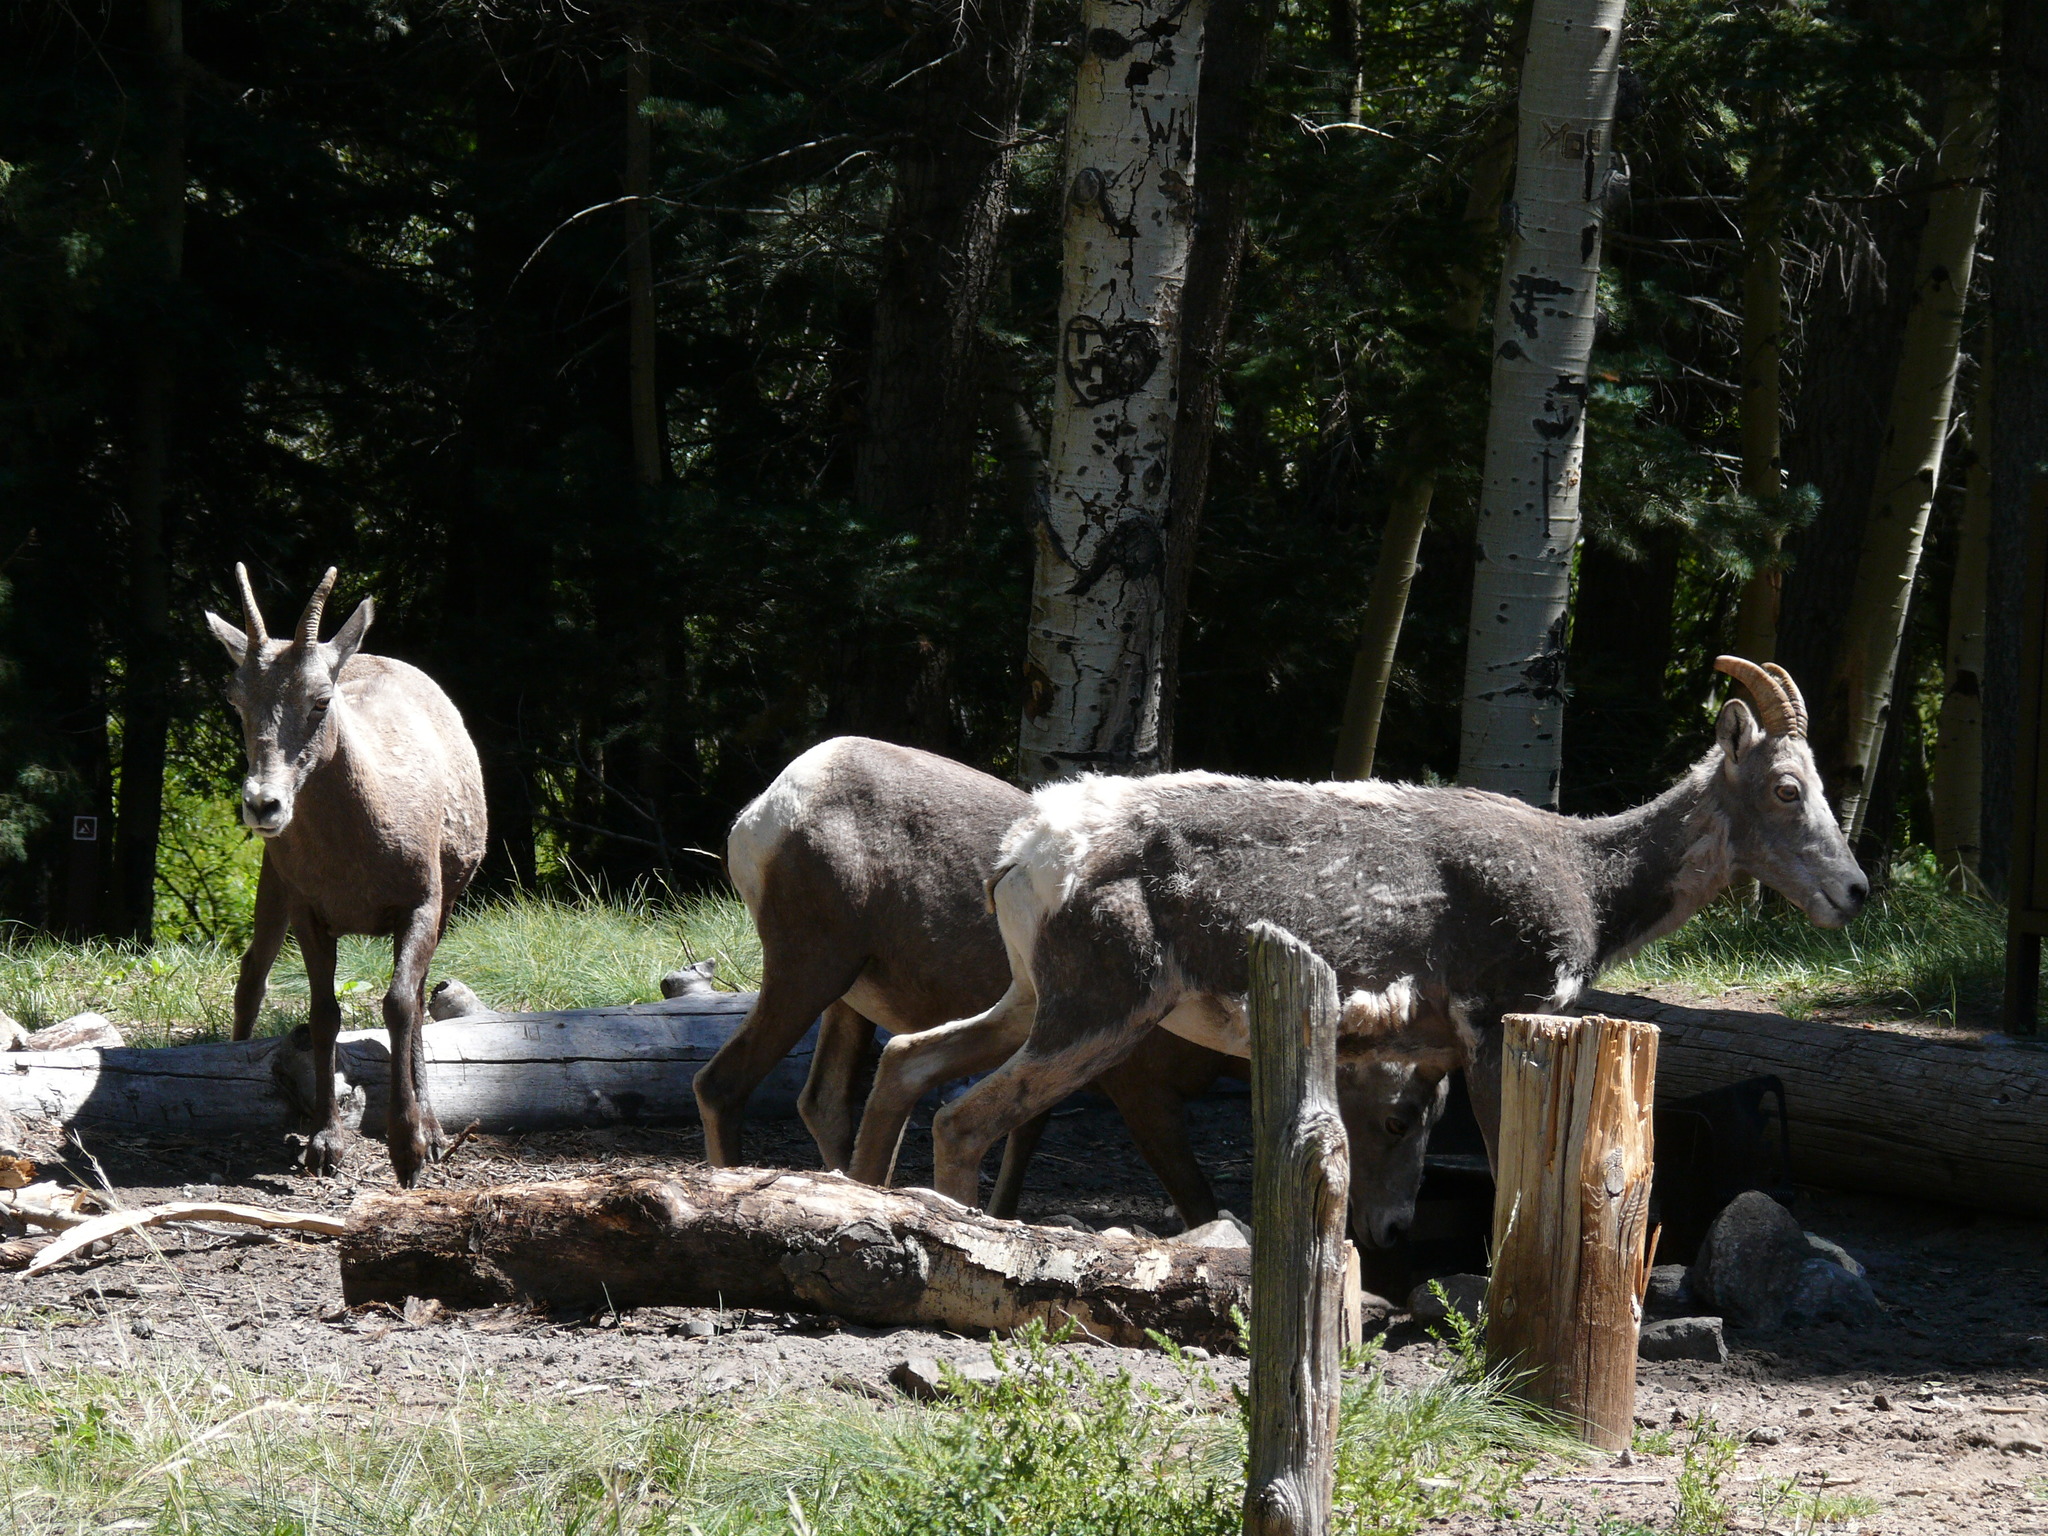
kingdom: Animalia
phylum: Chordata
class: Mammalia
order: Artiodactyla
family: Bovidae
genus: Ovis
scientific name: Ovis canadensis
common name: Bighorn sheep
